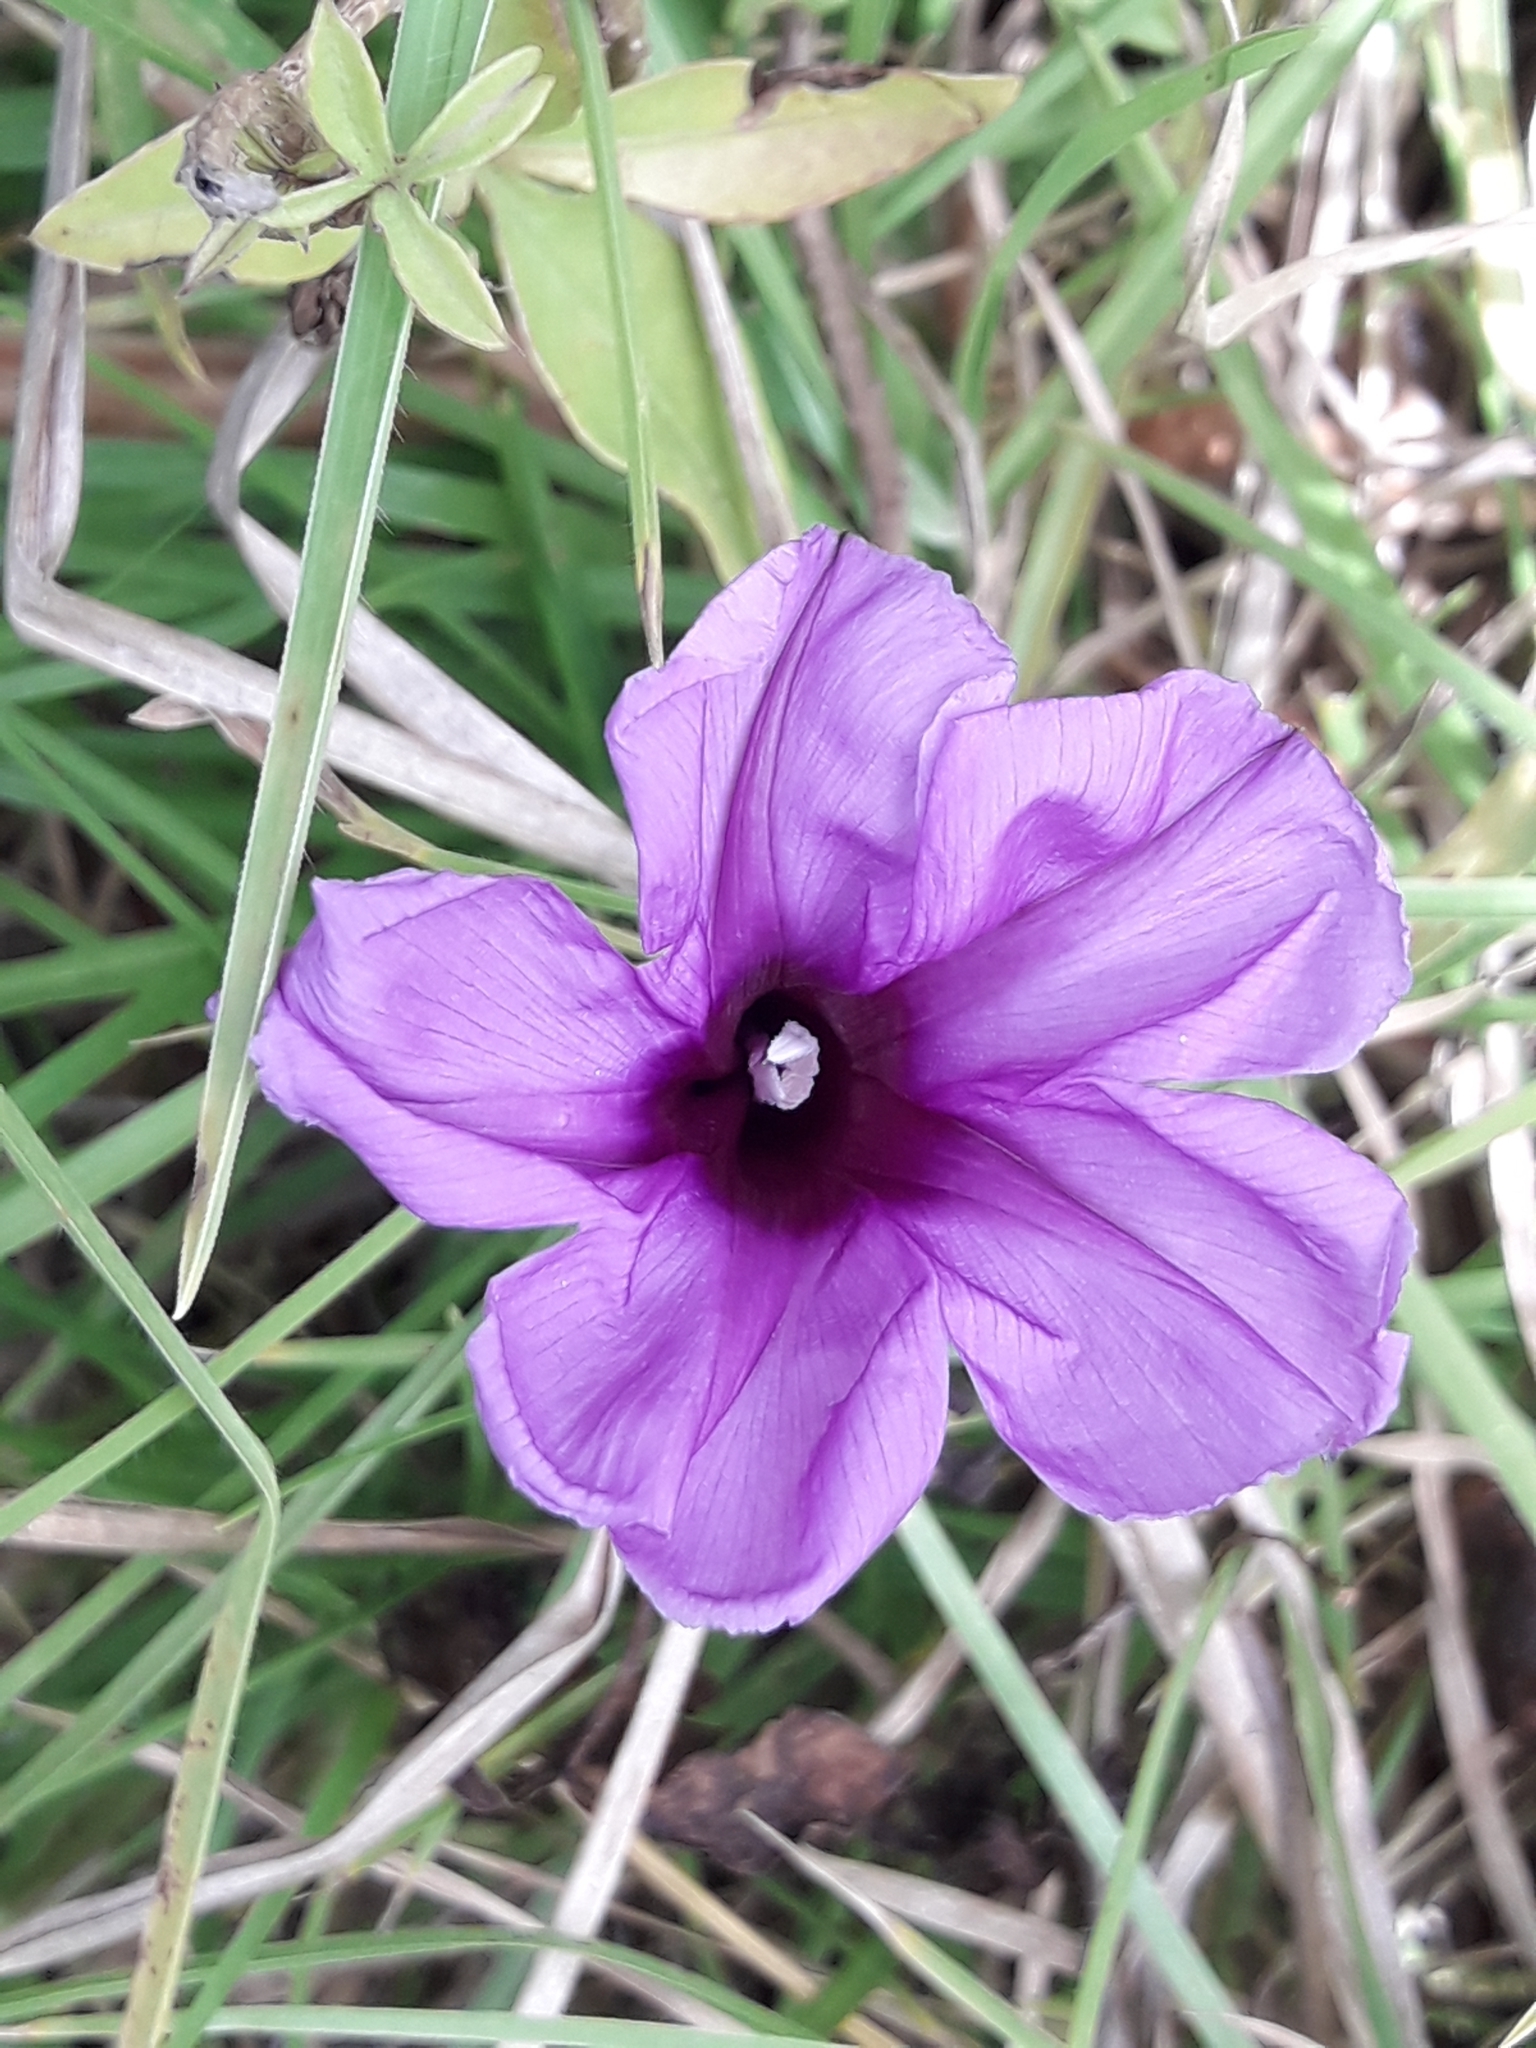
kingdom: Plantae
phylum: Tracheophyta
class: Magnoliopsida
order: Solanales
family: Convolvulaceae
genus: Ipomoea
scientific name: Ipomoea cairica
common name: Mile a minute vine
